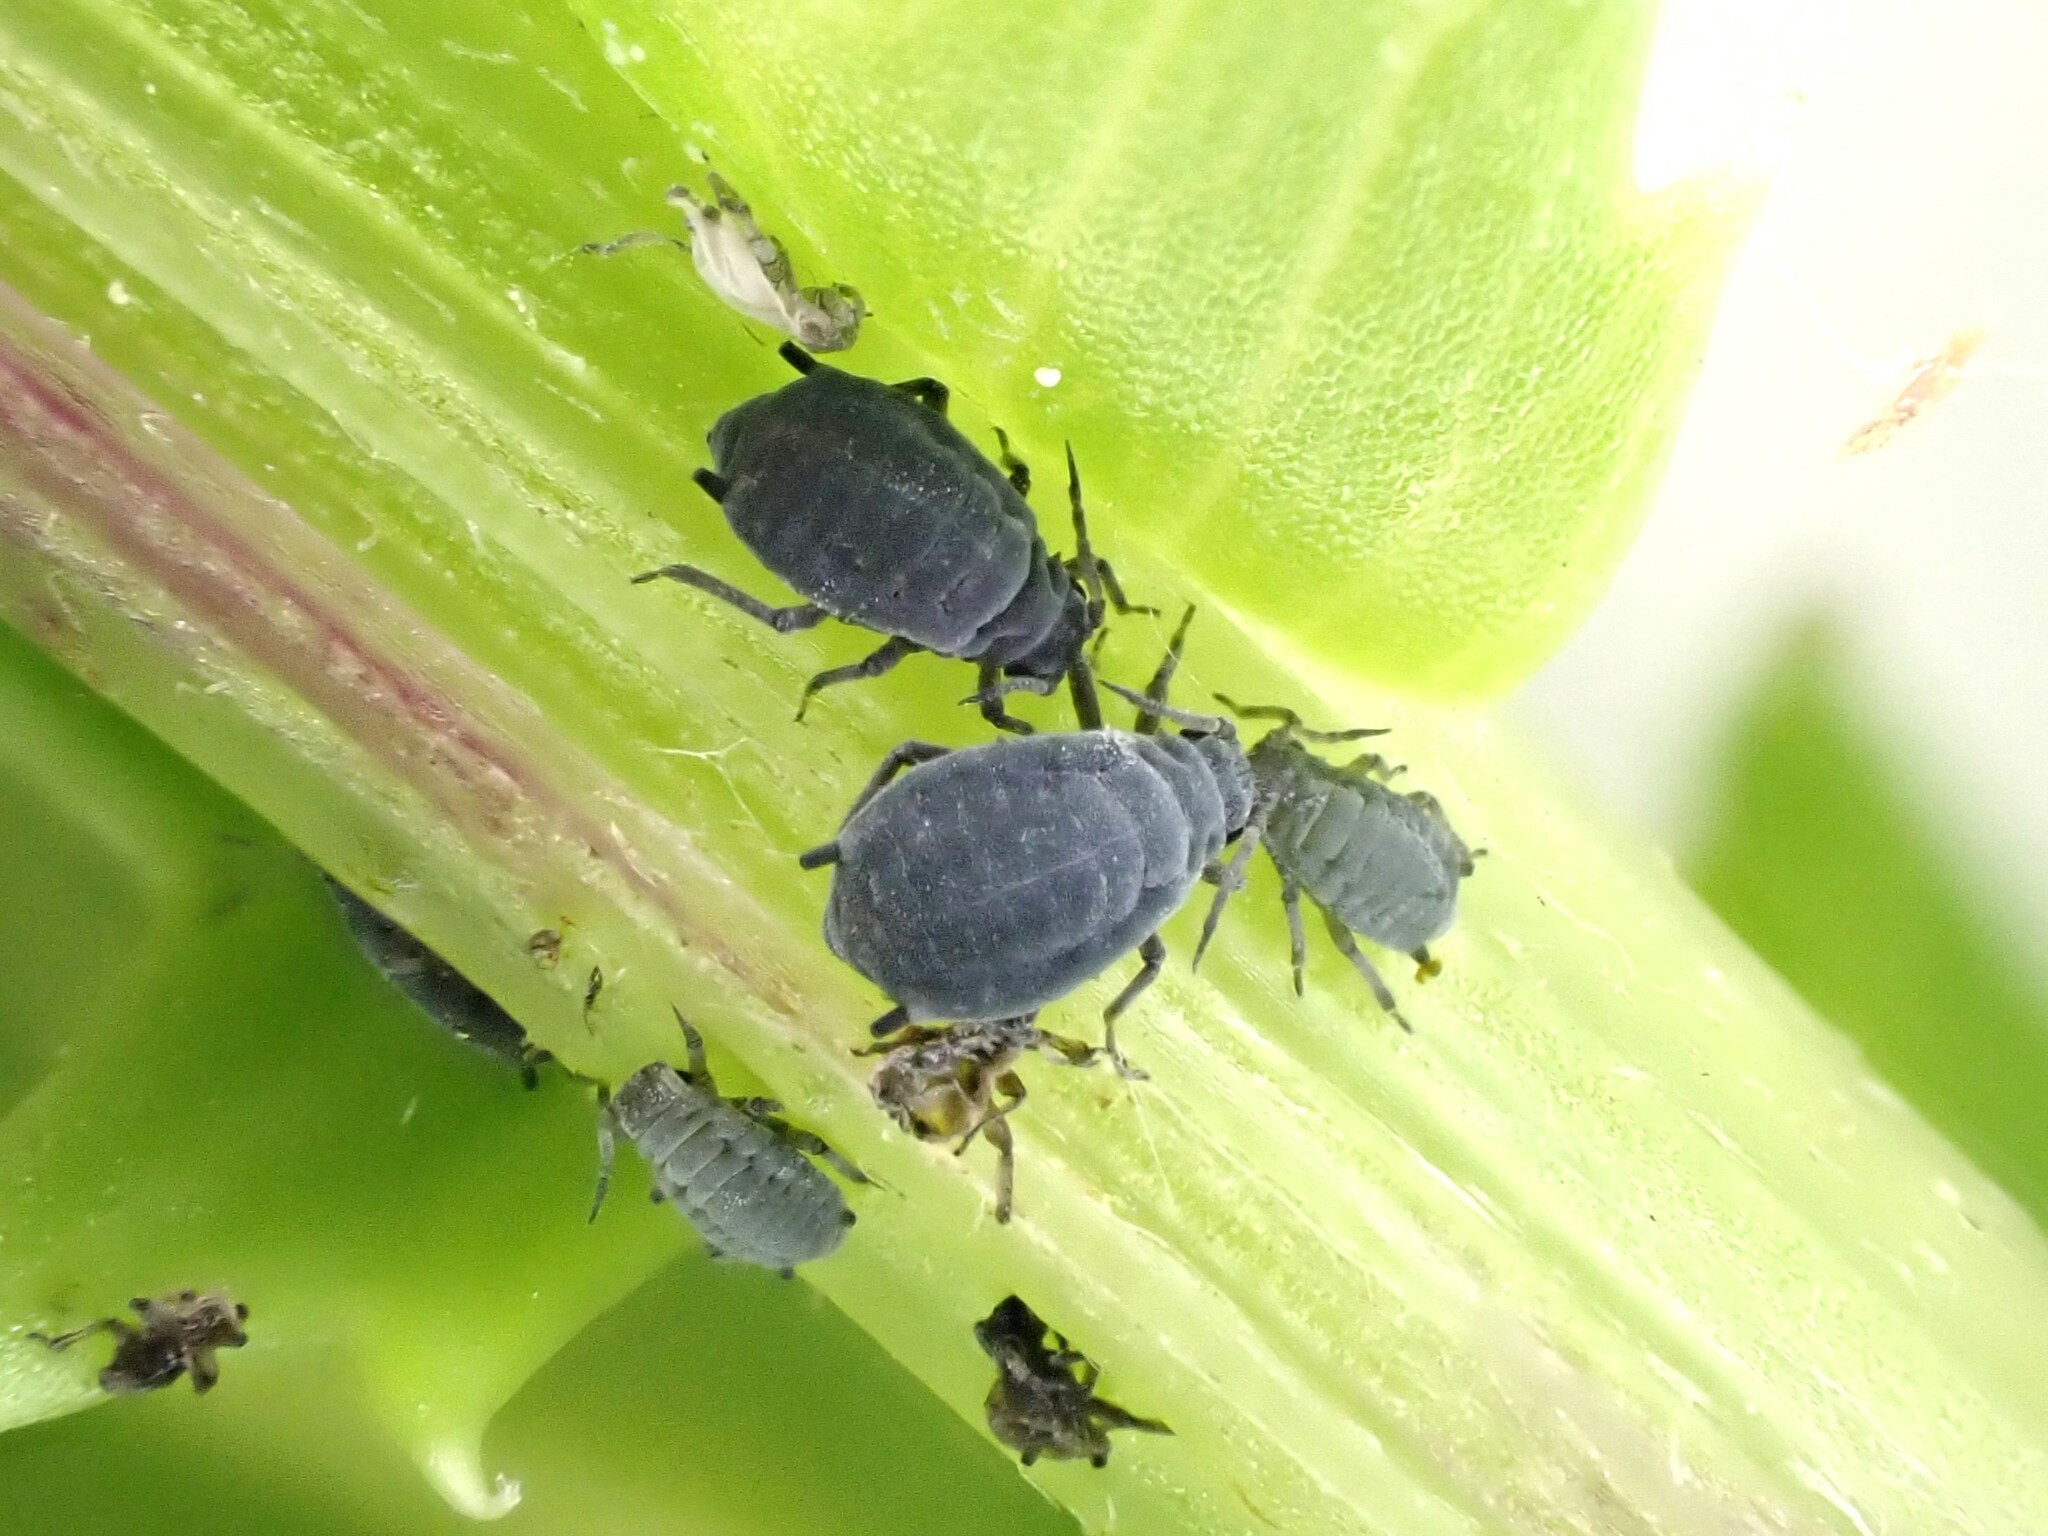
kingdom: Animalia
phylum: Arthropoda
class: Insecta
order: Hemiptera
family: Aphididae
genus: Aphis
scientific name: Aphis lugentis
